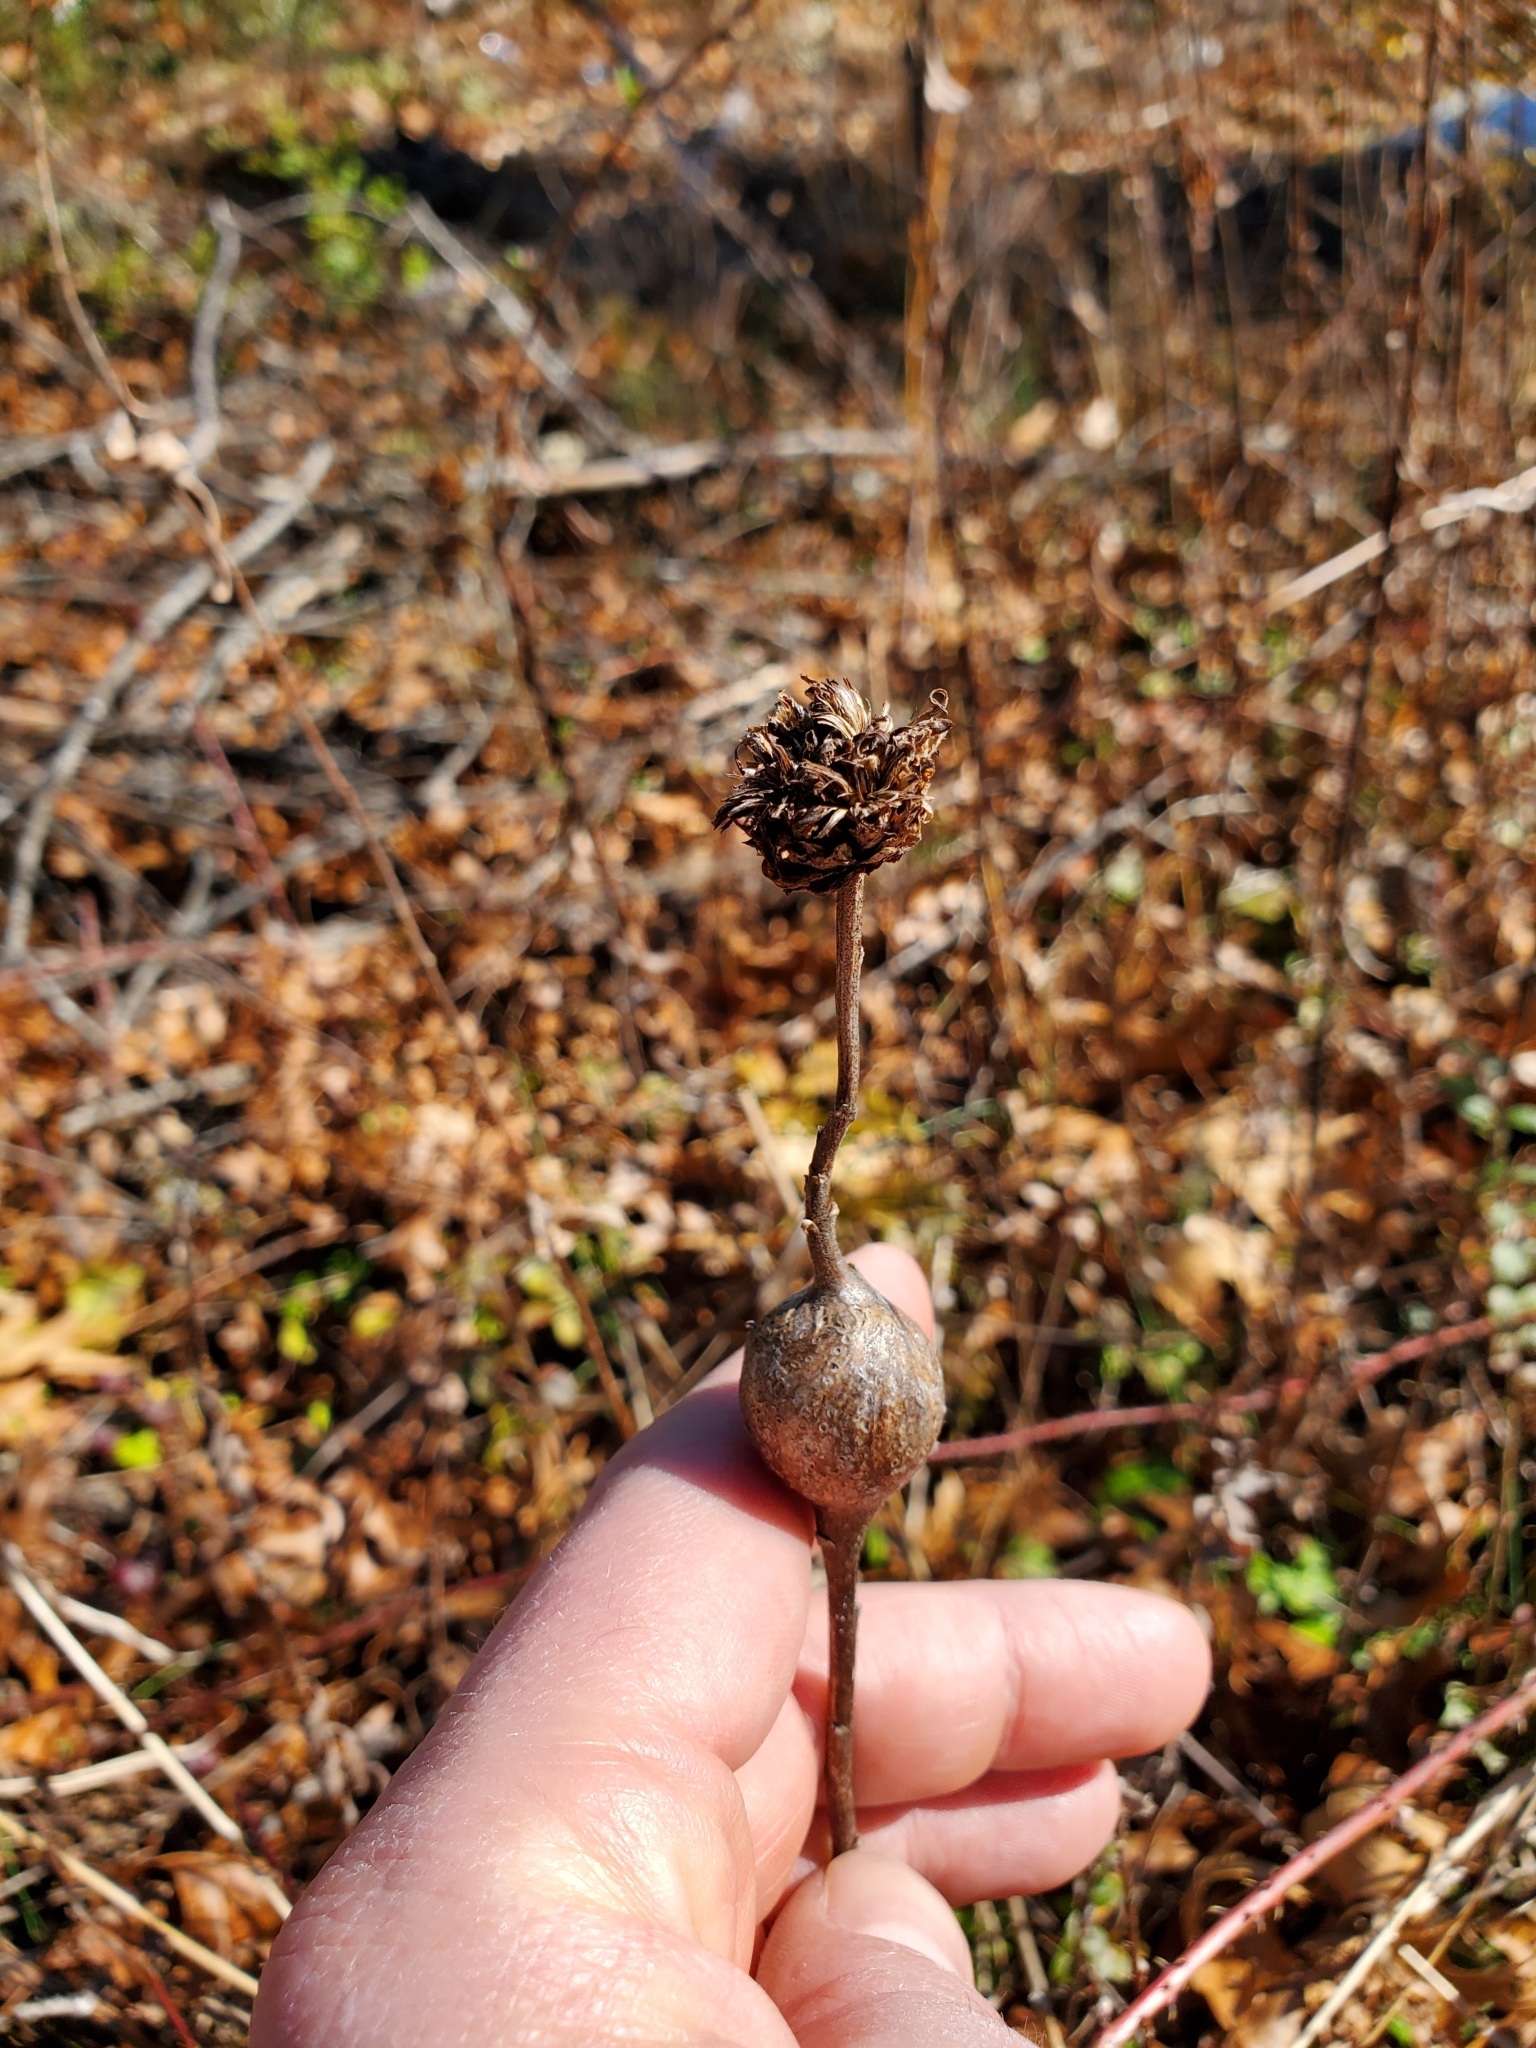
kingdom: Animalia
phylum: Arthropoda
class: Insecta
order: Diptera
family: Tephritidae
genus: Eurosta
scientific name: Eurosta solidaginis
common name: Goldenrod gall fly
